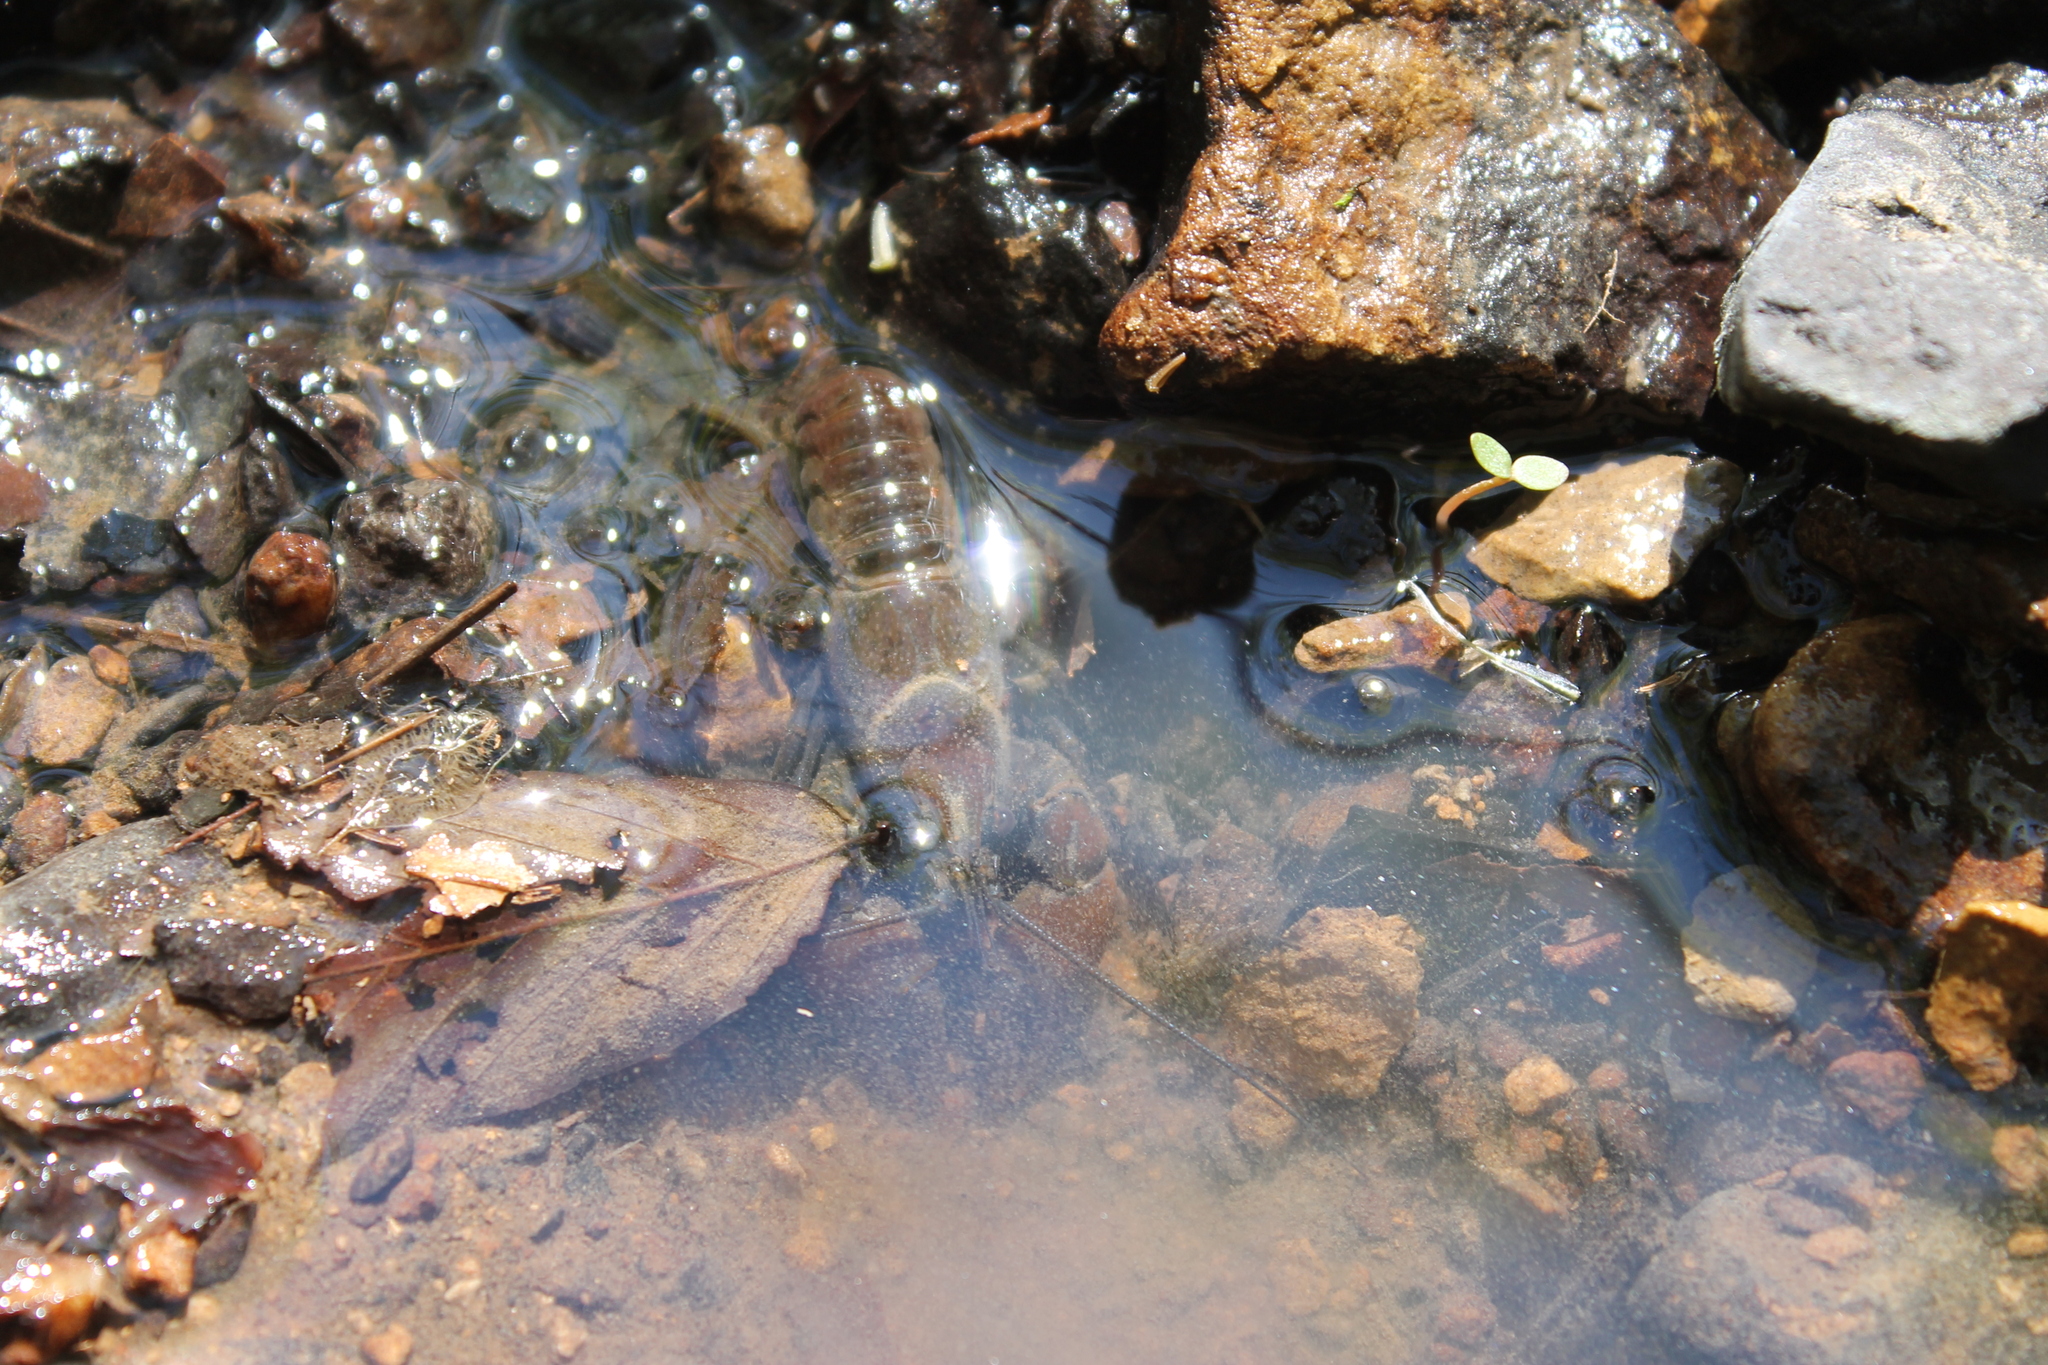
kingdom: Animalia
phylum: Arthropoda
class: Malacostraca
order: Decapoda
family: Cambaridae
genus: Faxonius
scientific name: Faxonius rhoadesi
